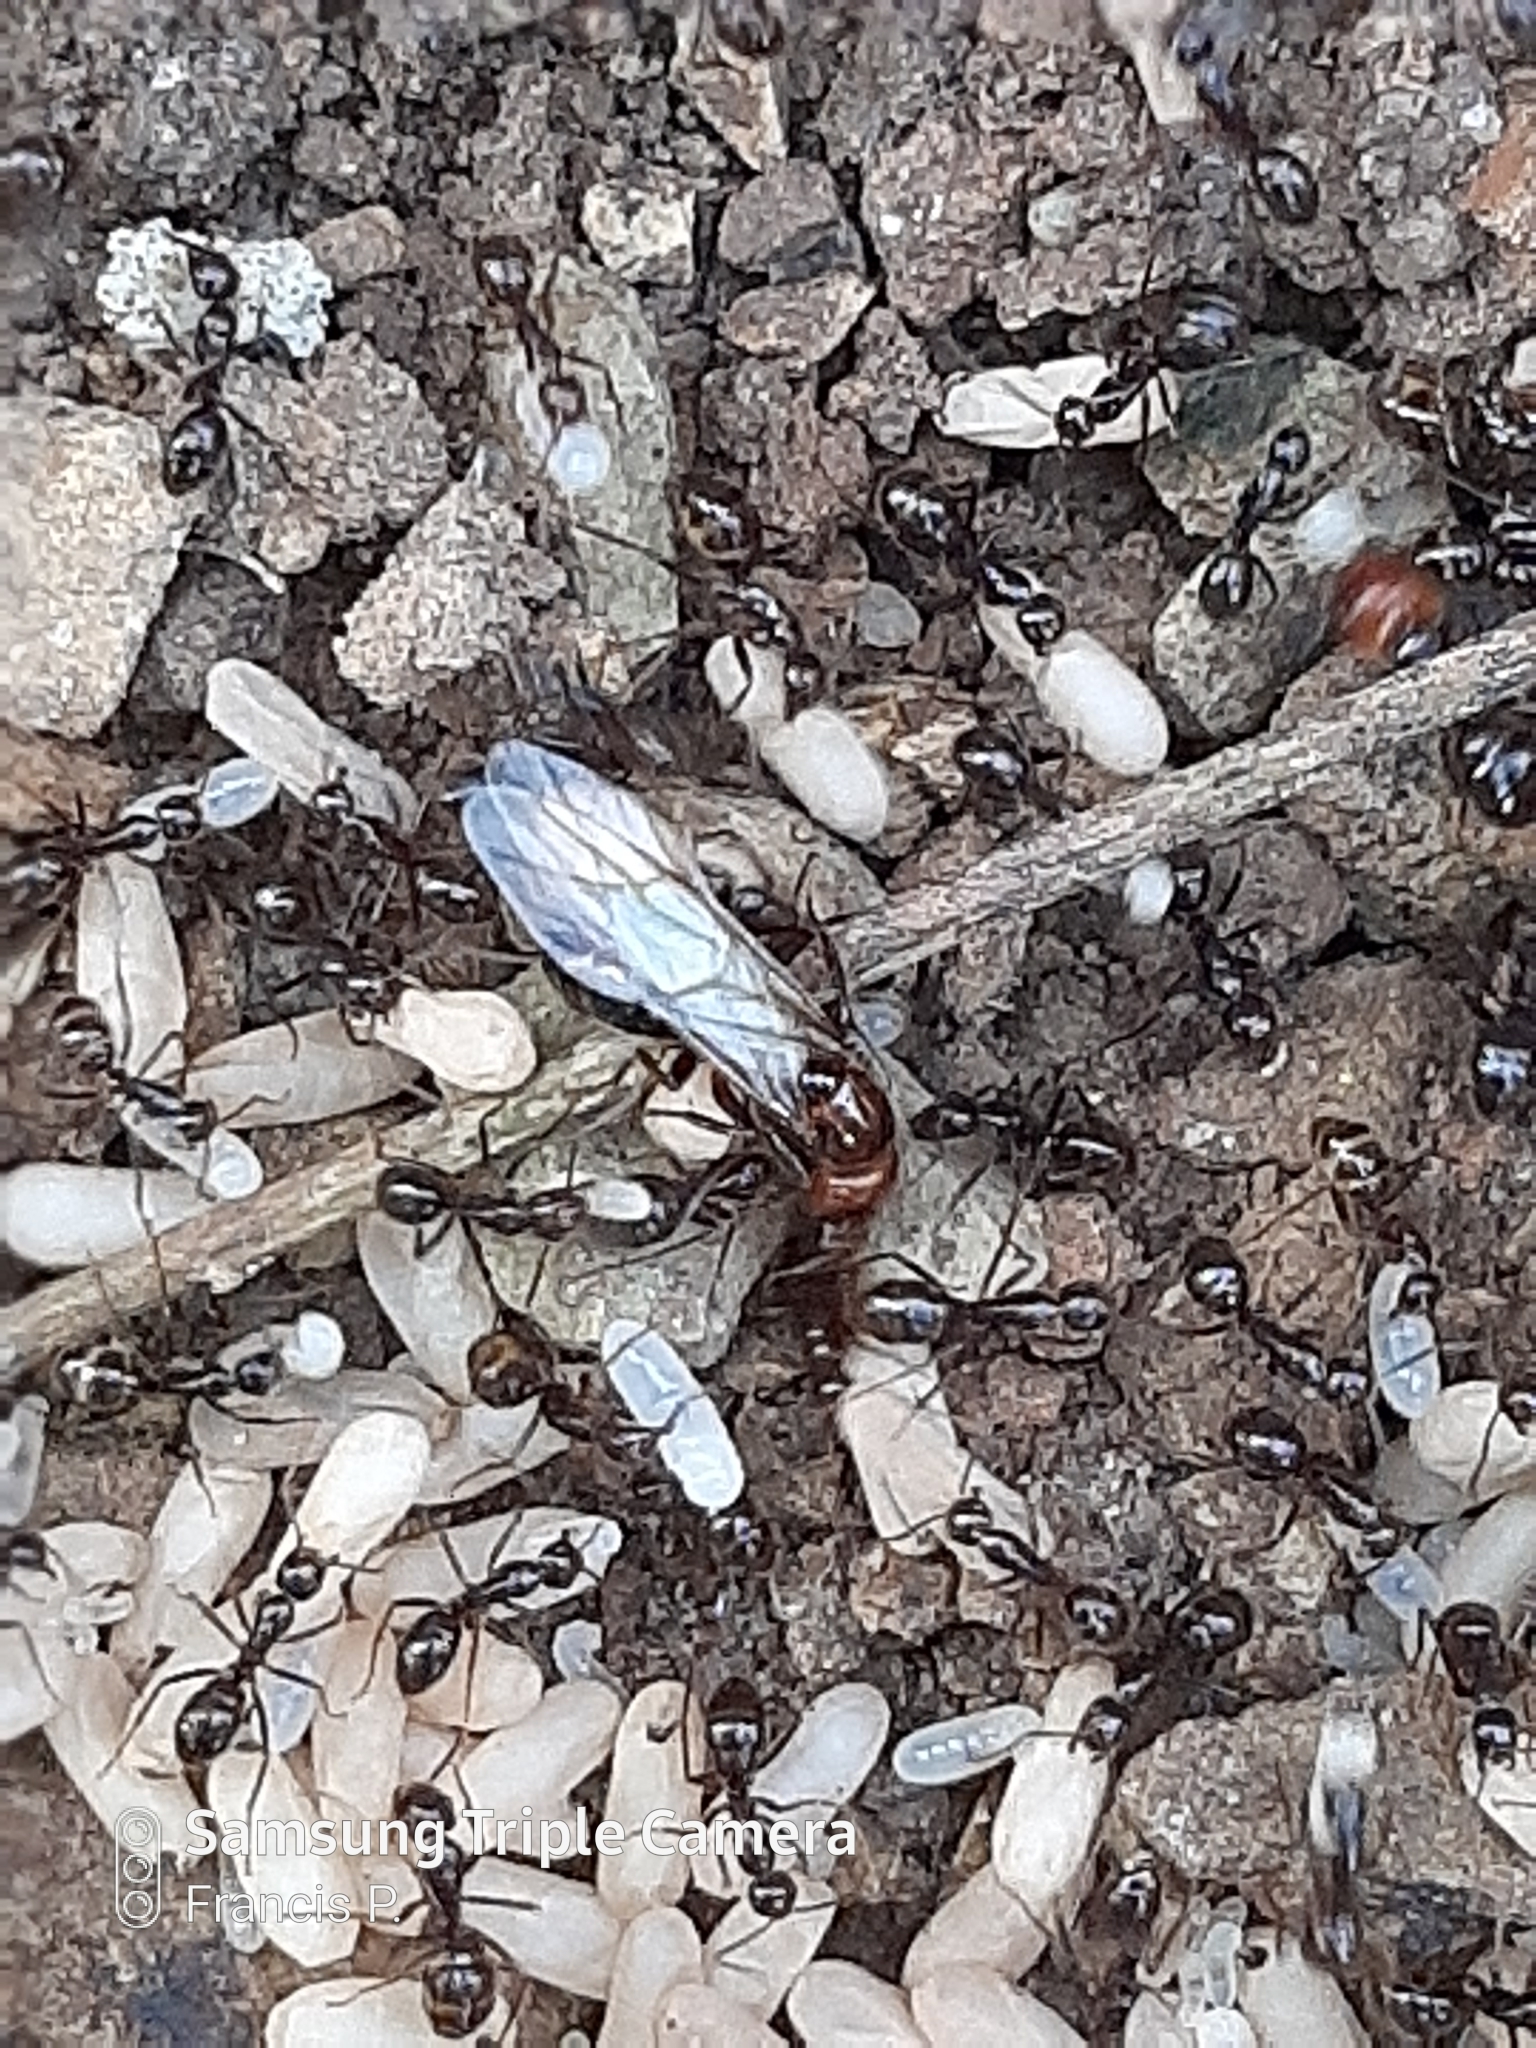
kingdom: Animalia
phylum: Arthropoda
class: Insecta
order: Hymenoptera
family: Formicidae
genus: Camponotus
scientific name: Camponotus bugnioni
